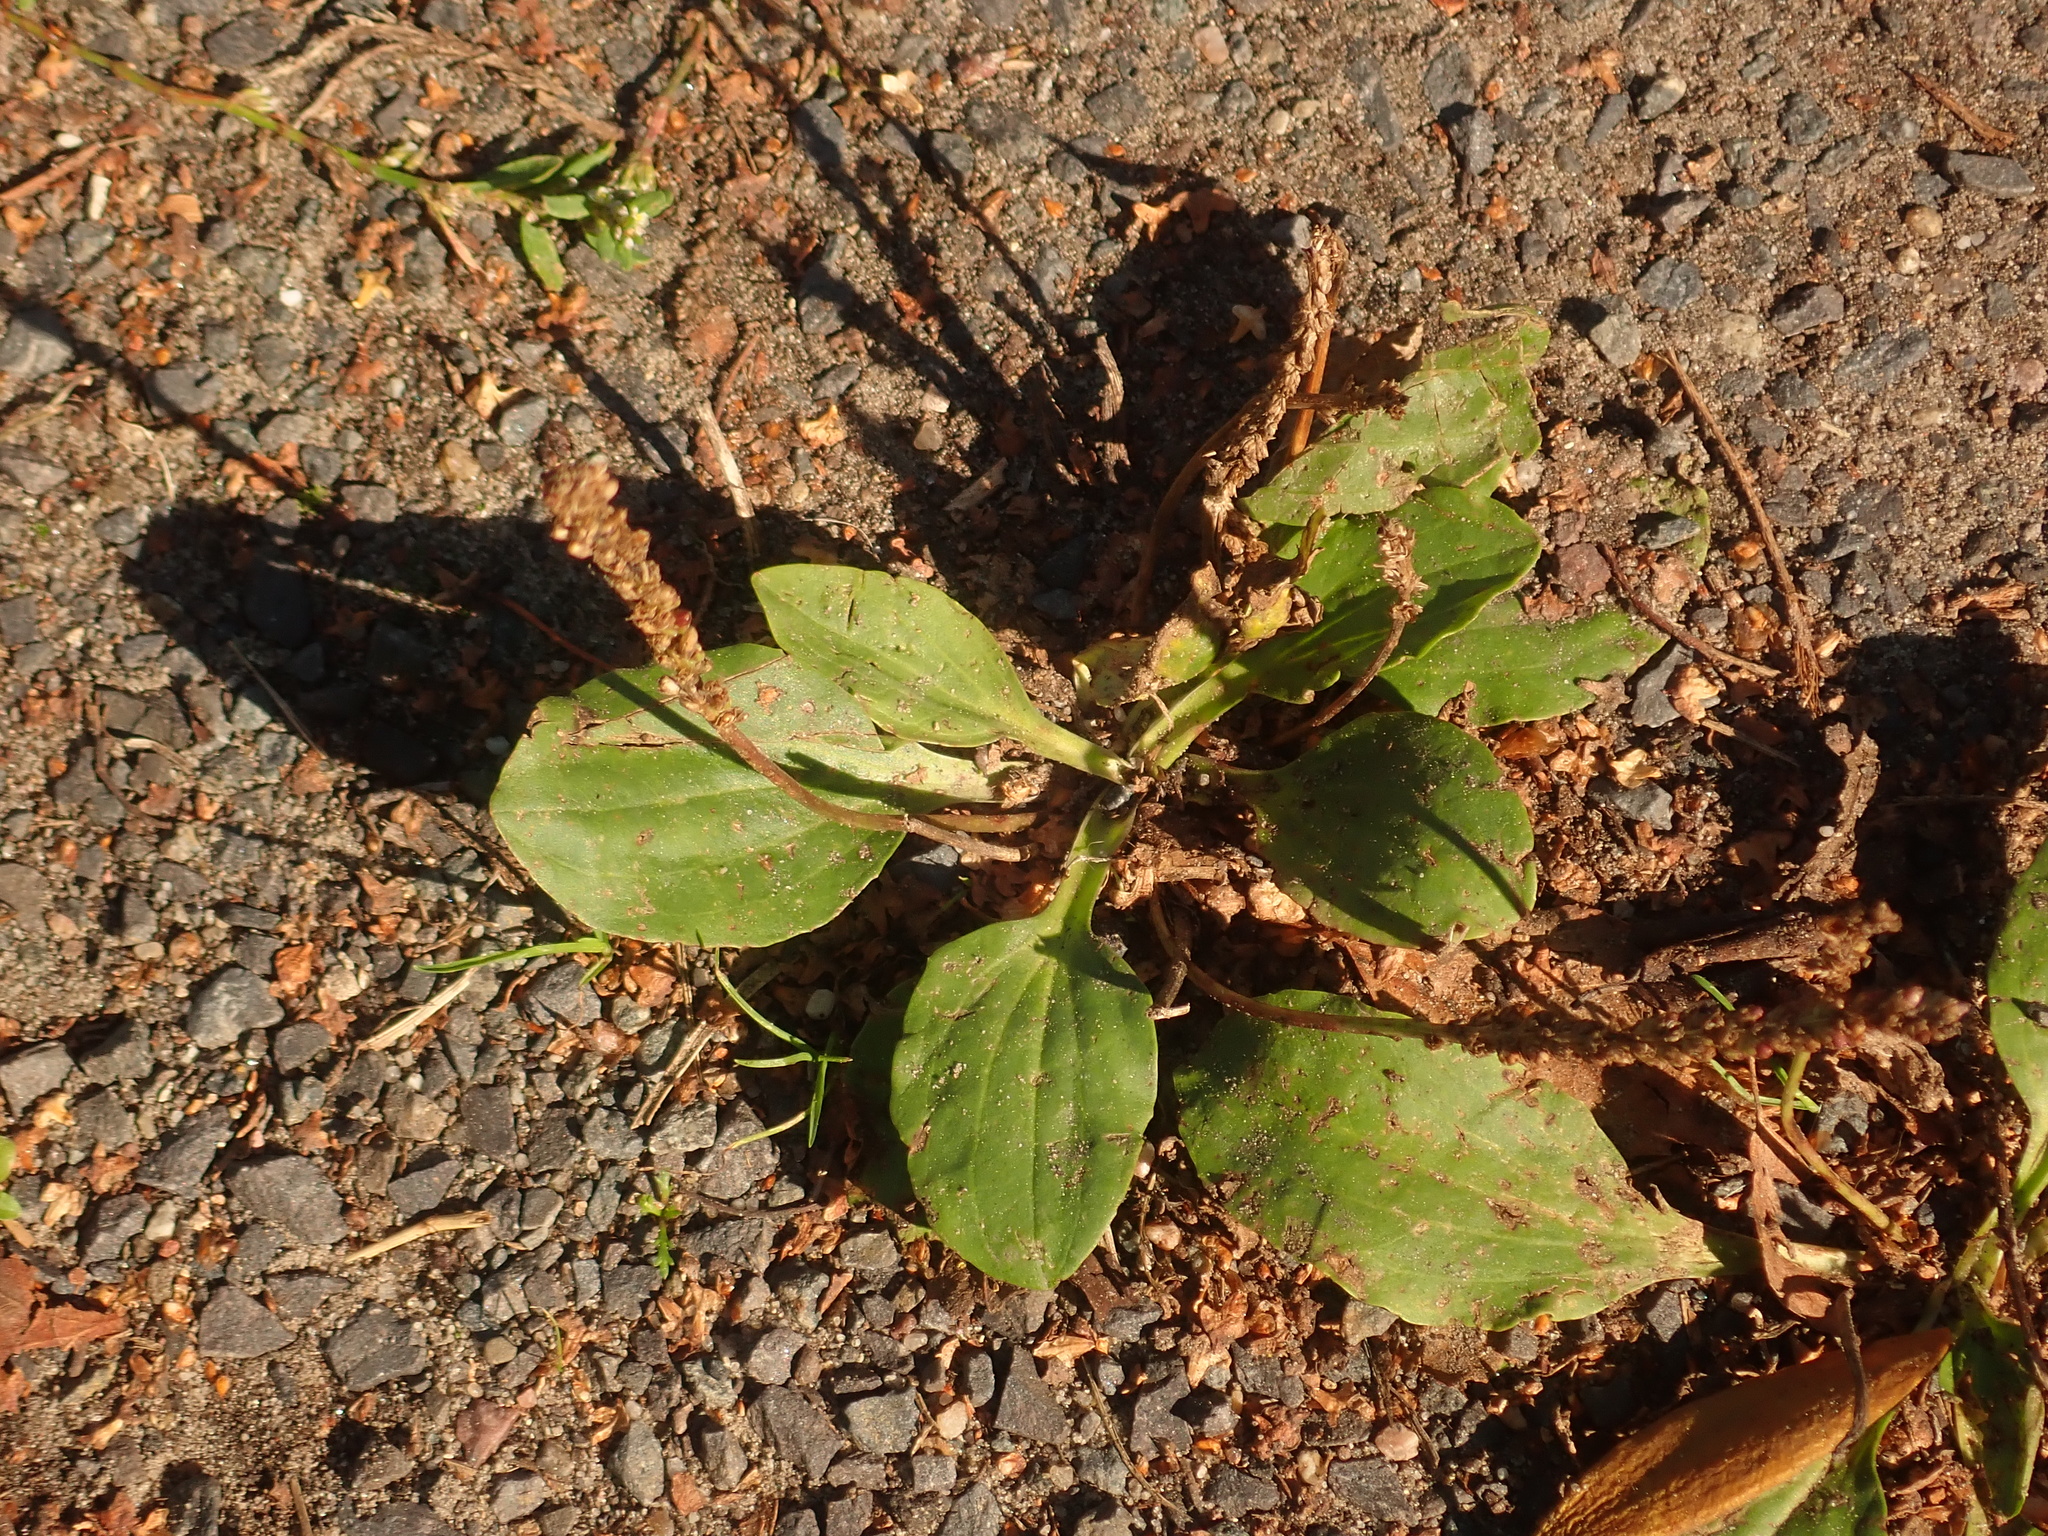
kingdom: Plantae
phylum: Tracheophyta
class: Magnoliopsida
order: Lamiales
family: Plantaginaceae
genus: Plantago
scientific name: Plantago major
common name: Common plantain
